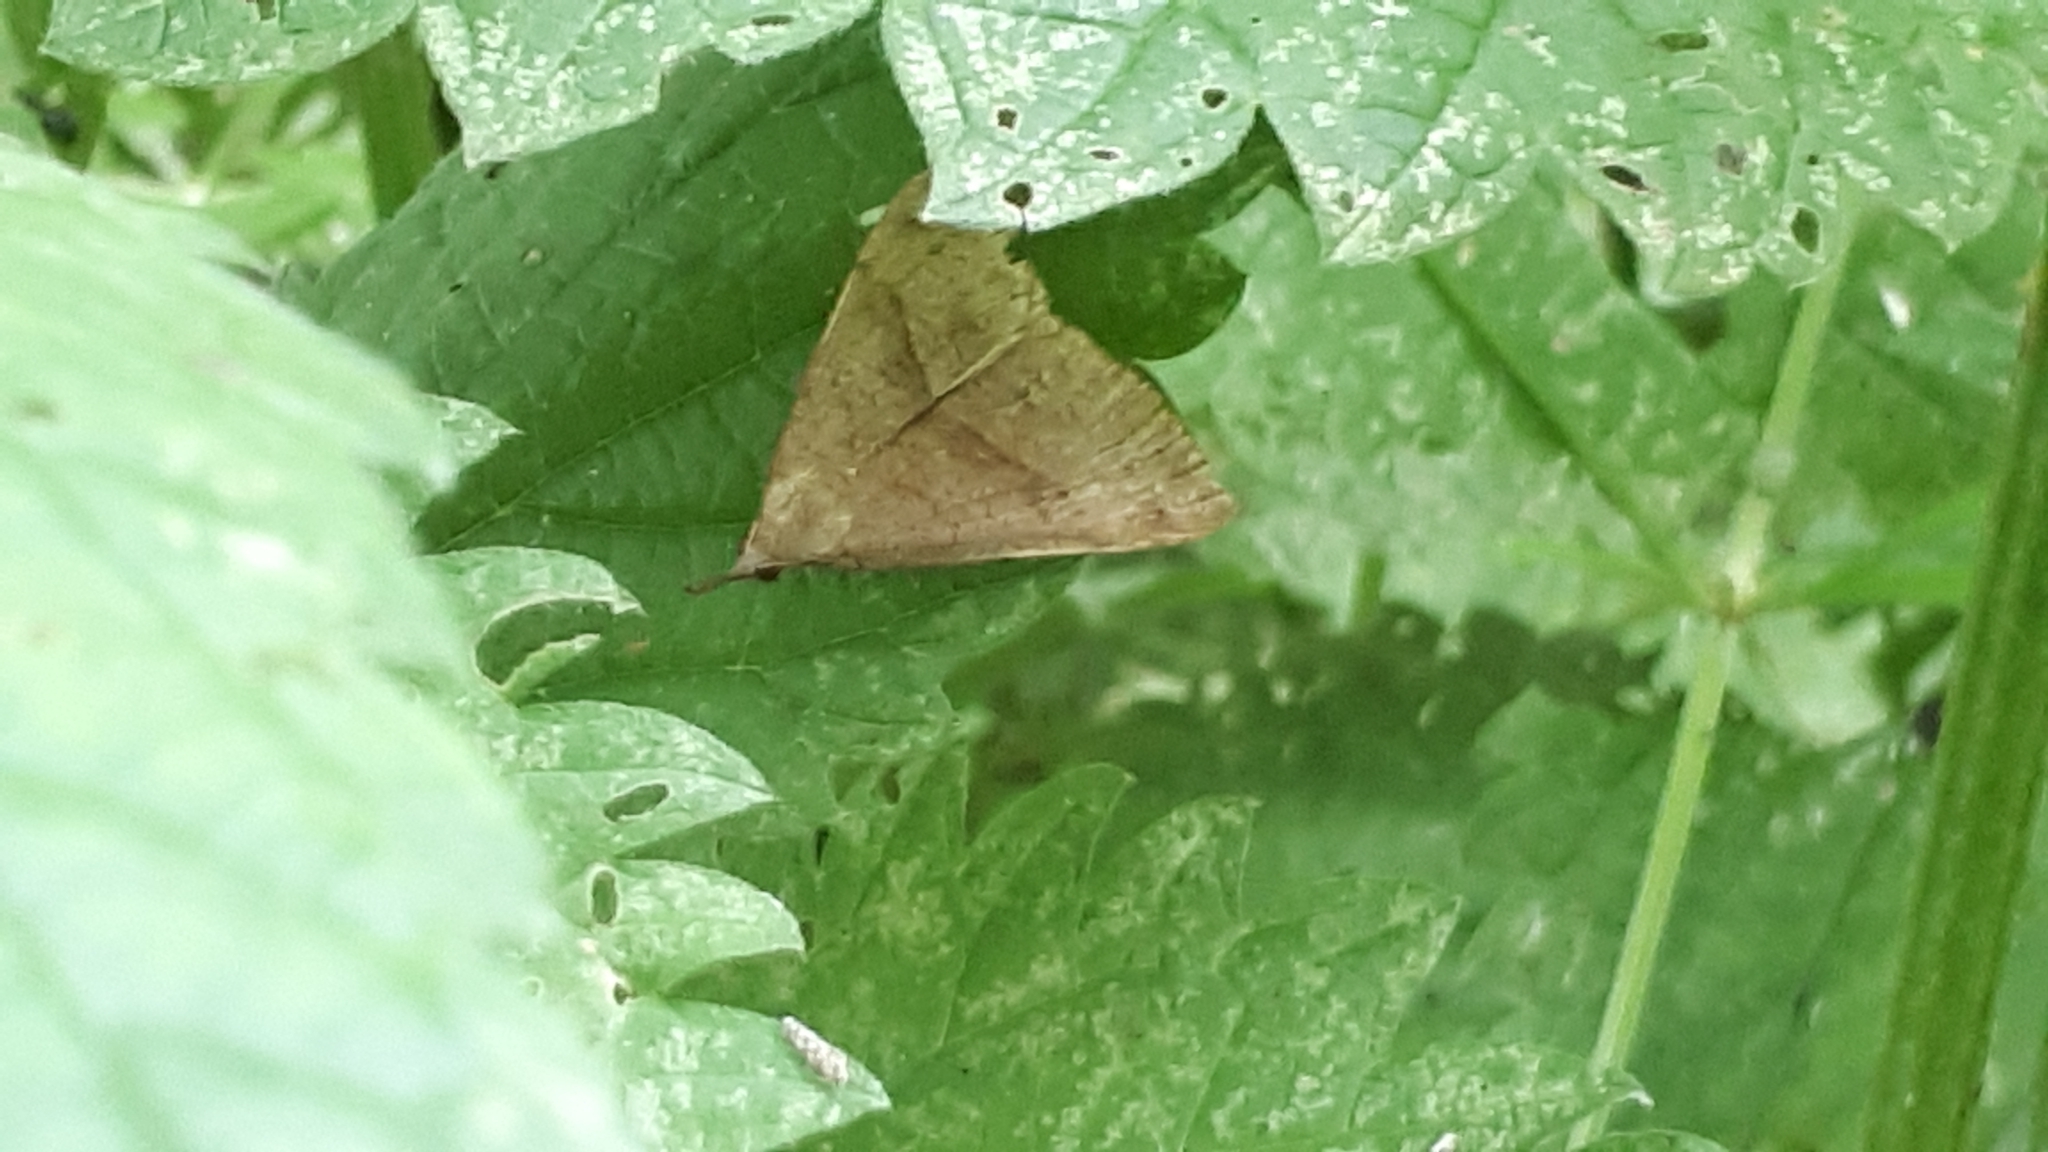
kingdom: Animalia
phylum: Arthropoda
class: Insecta
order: Lepidoptera
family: Erebidae
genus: Hypena
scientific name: Hypena proboscidalis
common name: Snout
